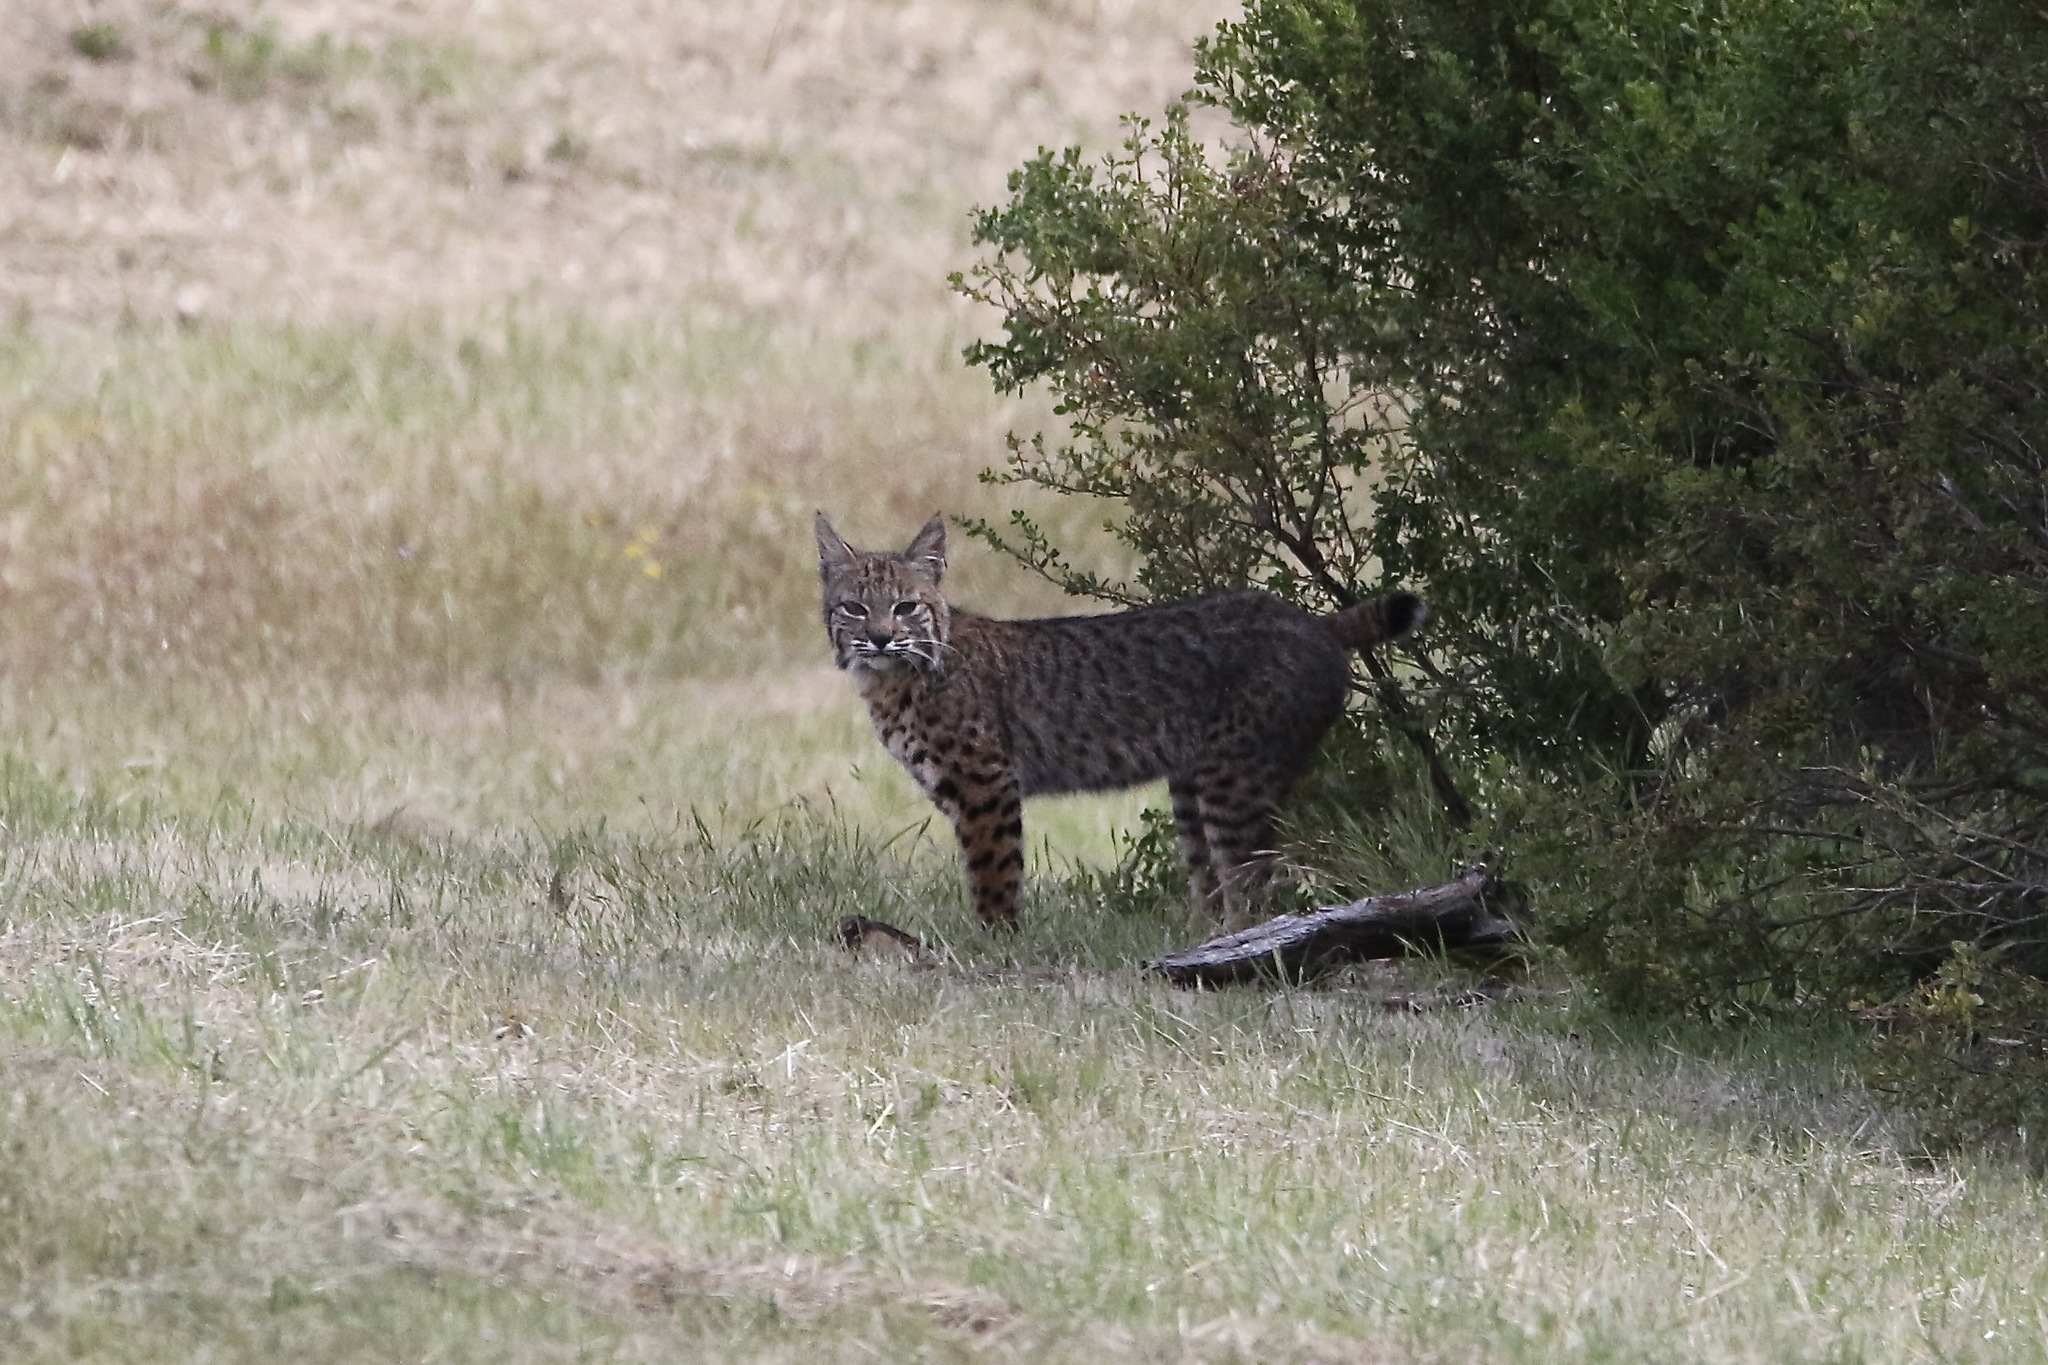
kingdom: Animalia
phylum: Chordata
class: Mammalia
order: Carnivora
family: Felidae
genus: Lynx
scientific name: Lynx rufus
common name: Bobcat
